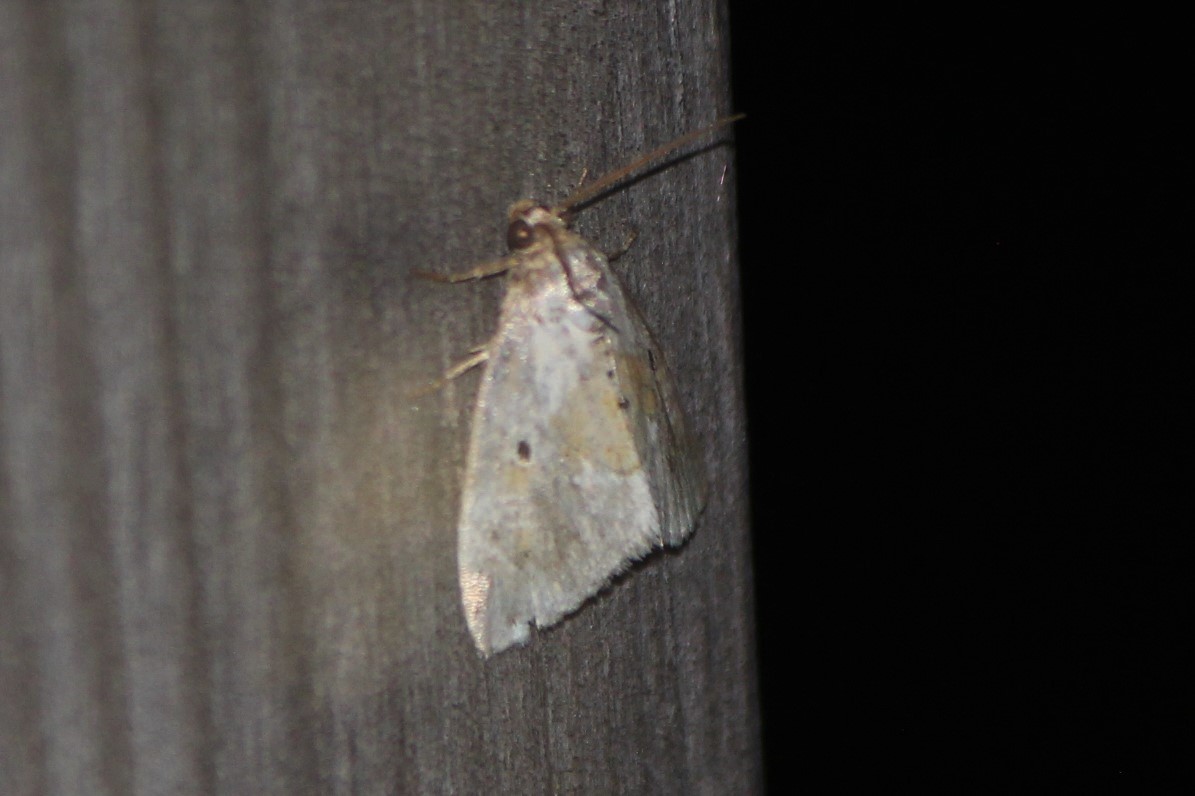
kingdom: Animalia
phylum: Arthropoda
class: Insecta
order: Lepidoptera
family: Noctuidae
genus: Maliattha
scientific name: Maliattha synochitis
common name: Black-dotted glyph
